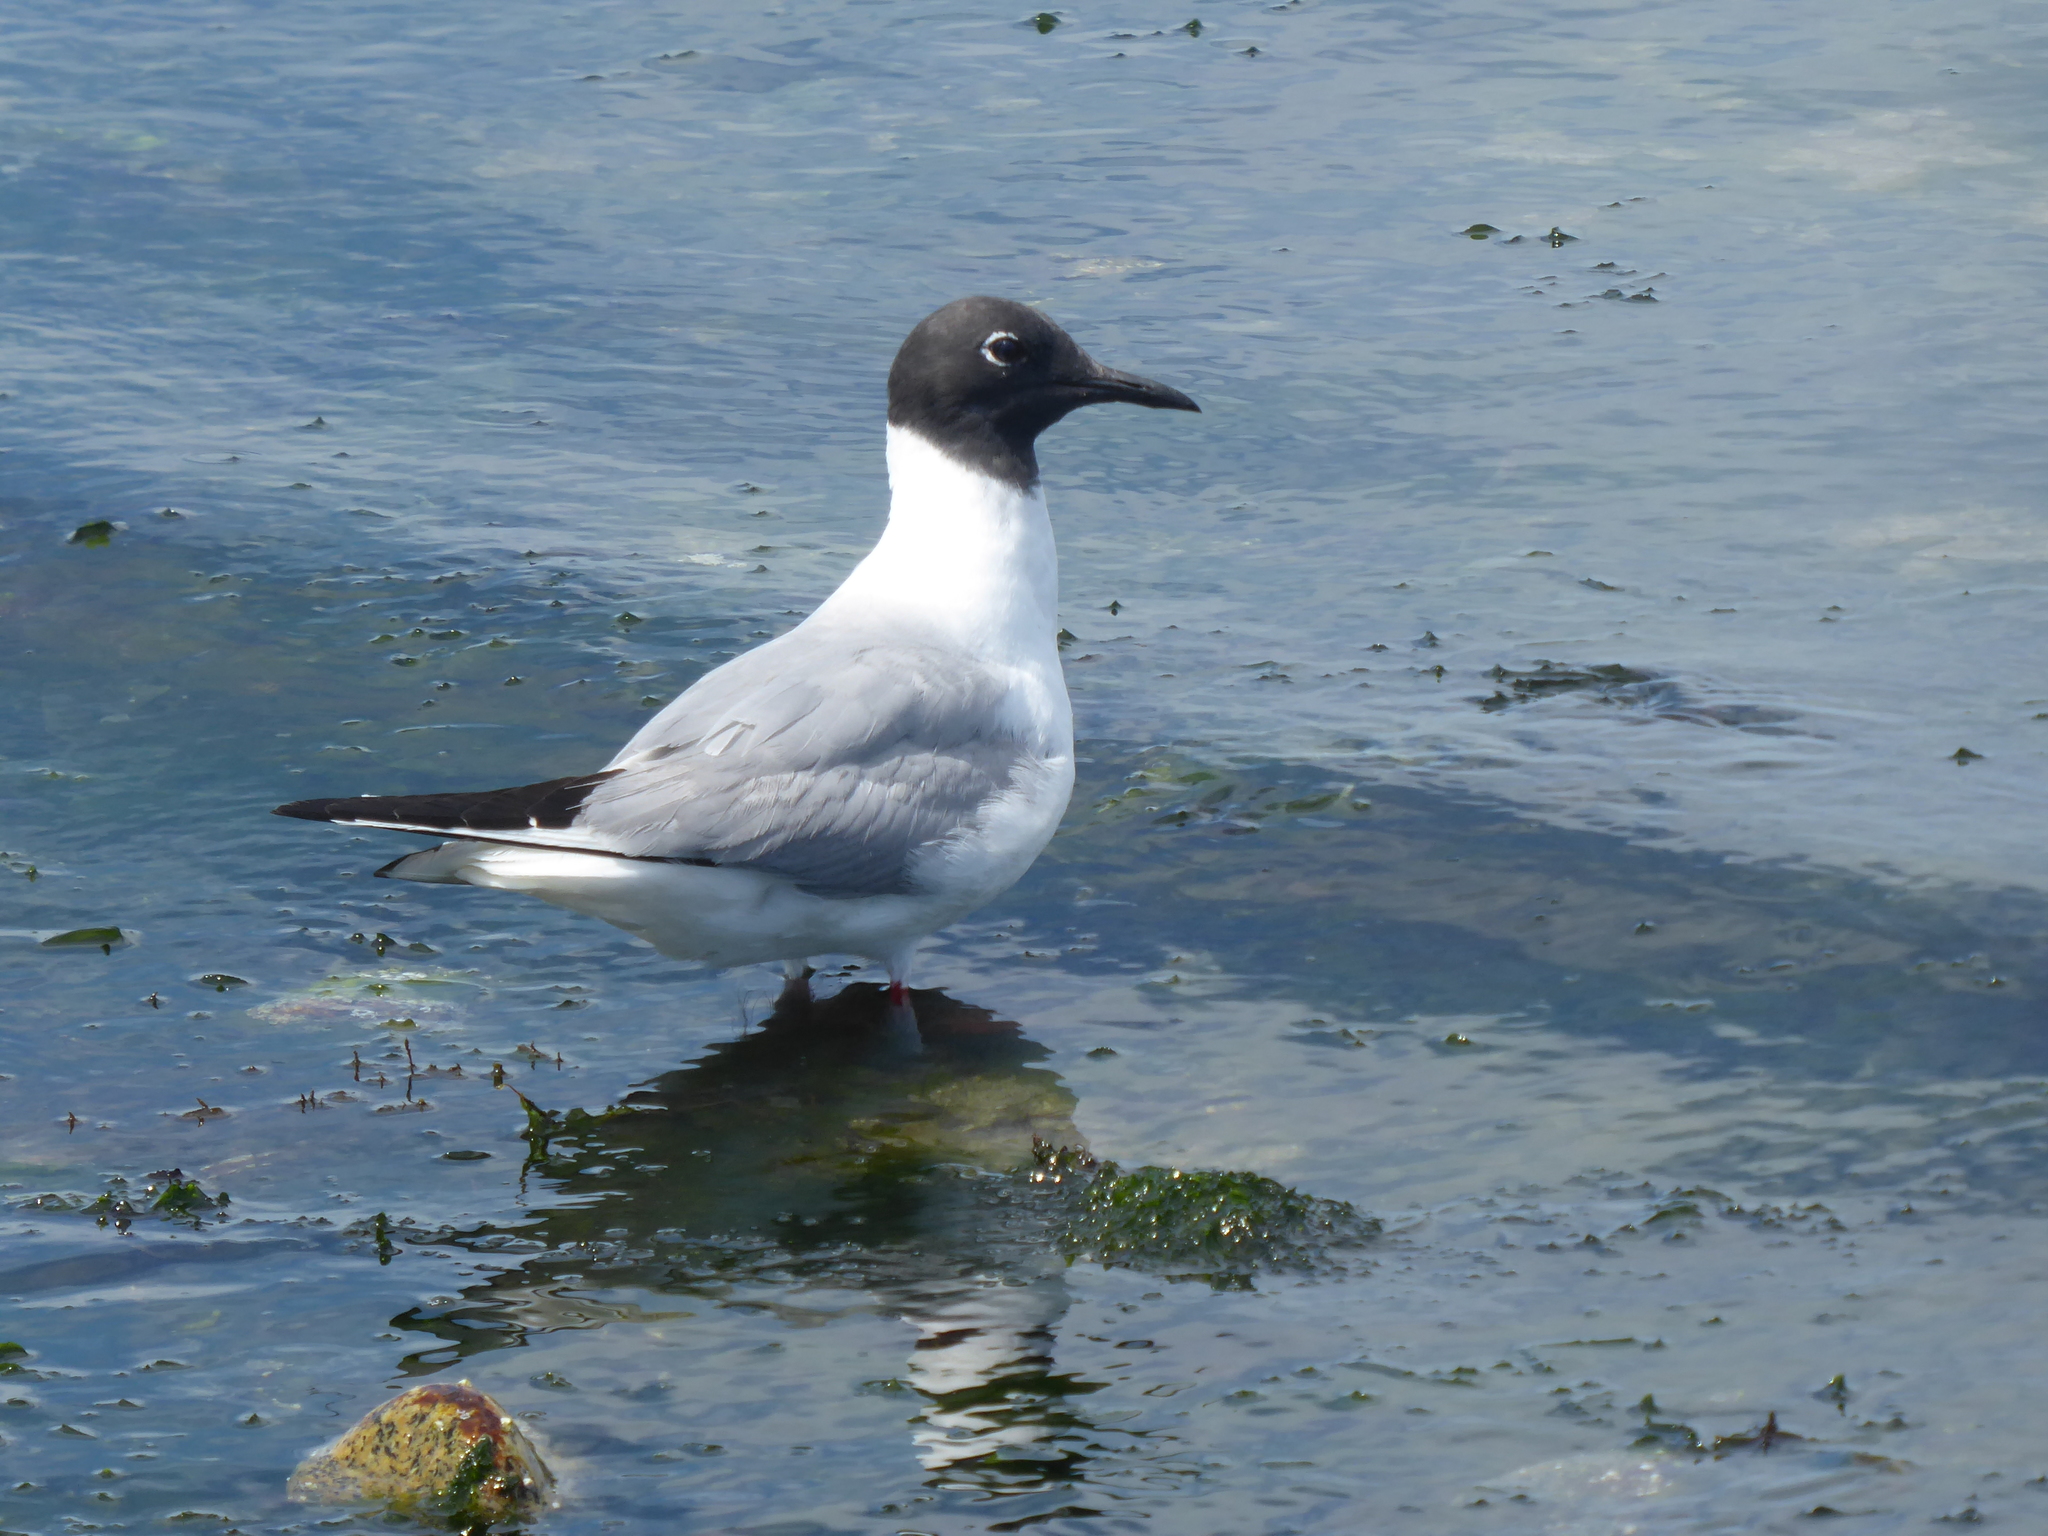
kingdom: Animalia
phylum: Chordata
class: Aves
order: Charadriiformes
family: Laridae
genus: Chroicocephalus
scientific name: Chroicocephalus philadelphia
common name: Bonaparte's gull
